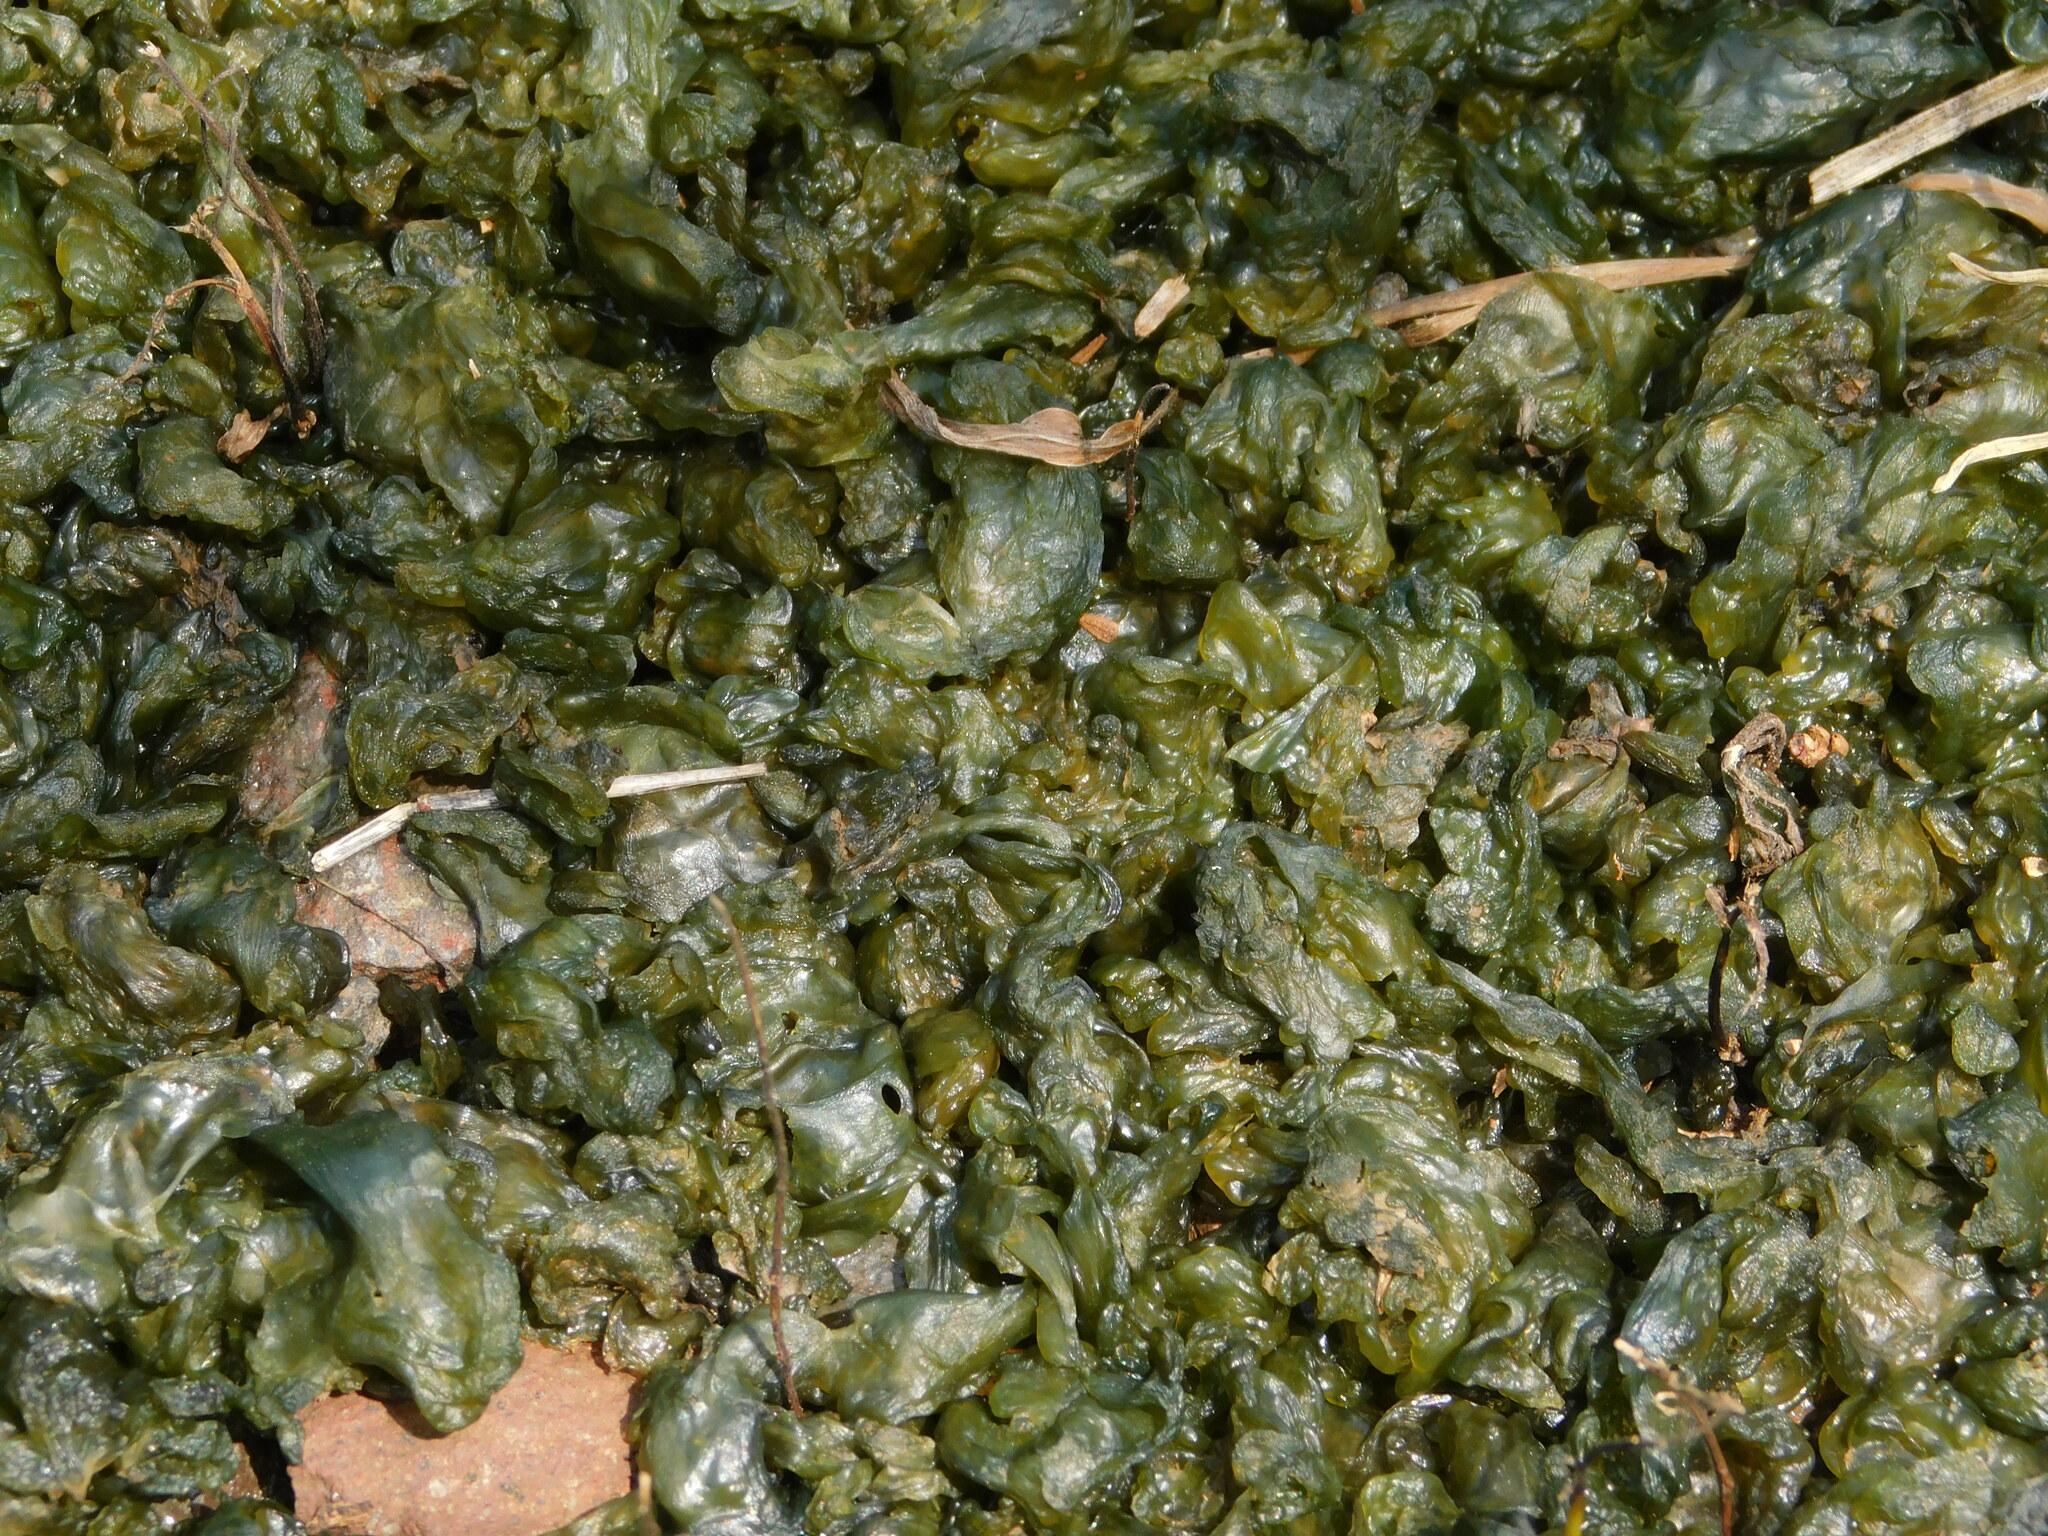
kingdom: Bacteria
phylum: Cyanobacteria
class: Cyanobacteriia
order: Cyanobacteriales
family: Nostocaceae
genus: Nostoc
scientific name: Nostoc commune
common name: Star jelly
